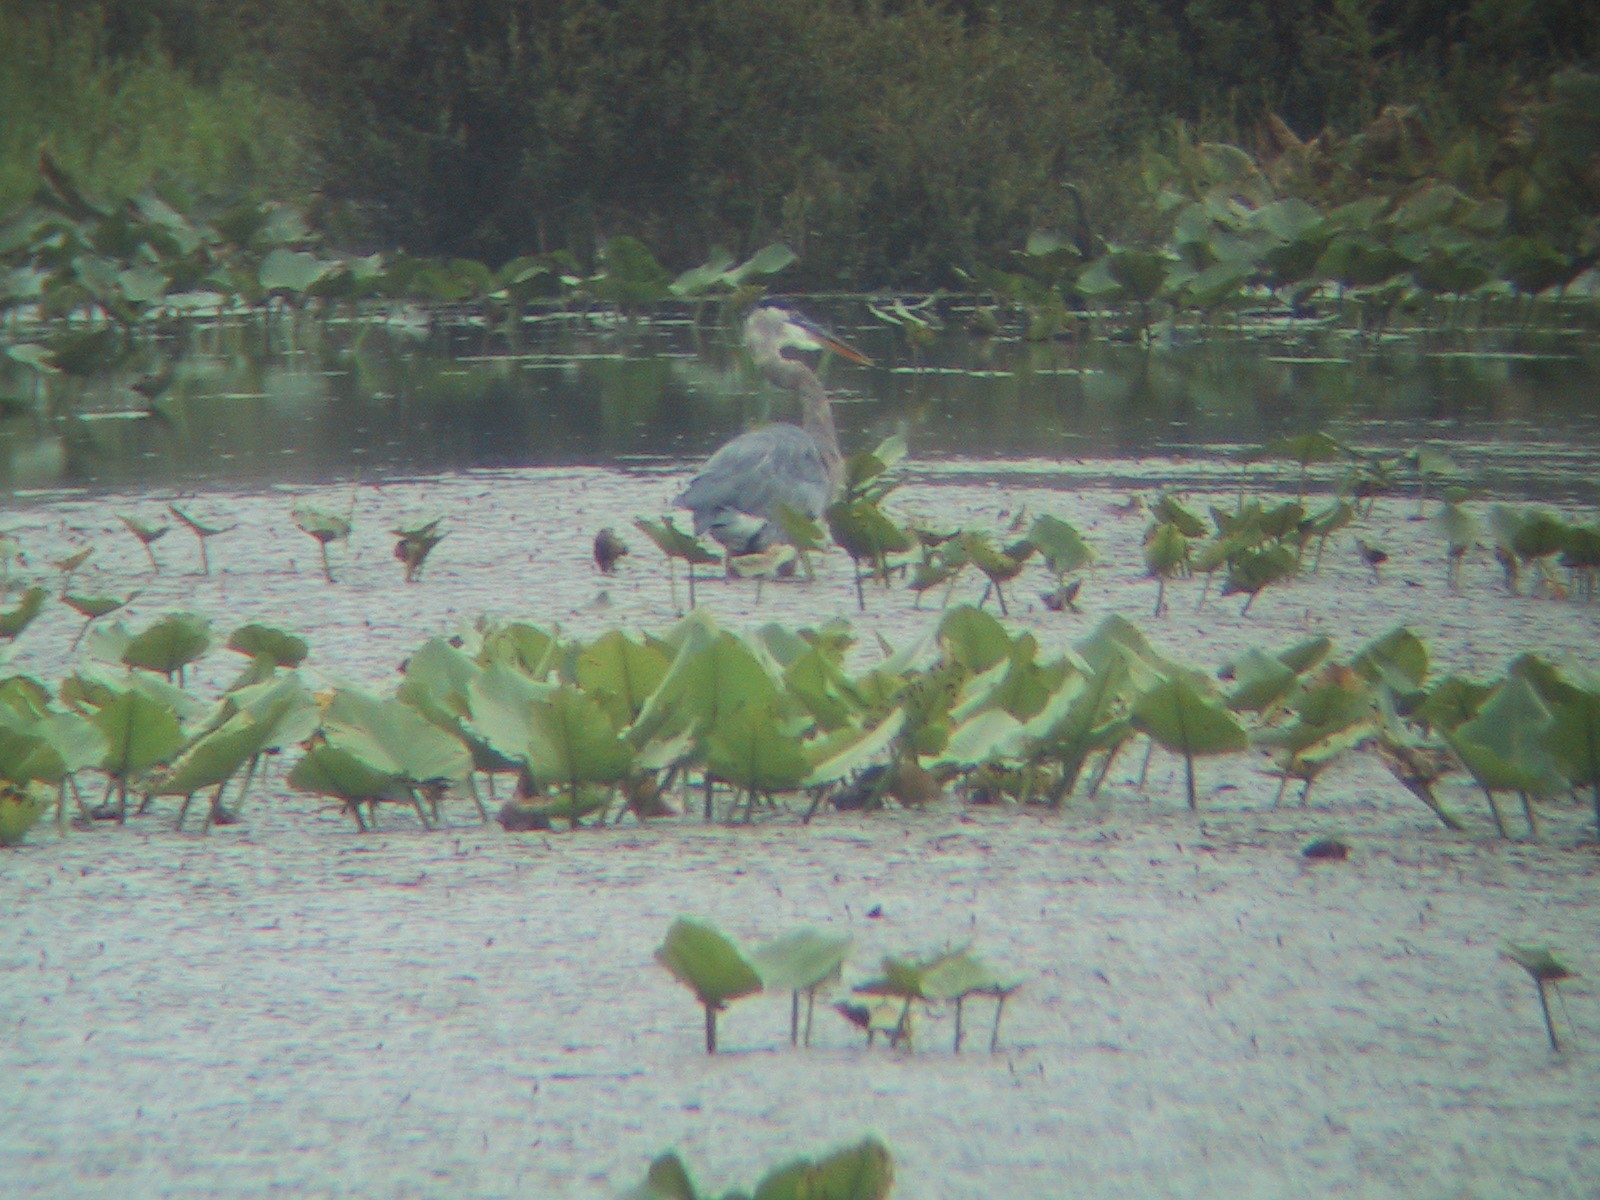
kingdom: Animalia
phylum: Chordata
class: Aves
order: Pelecaniformes
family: Ardeidae
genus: Ardea
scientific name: Ardea herodias
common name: Great blue heron
